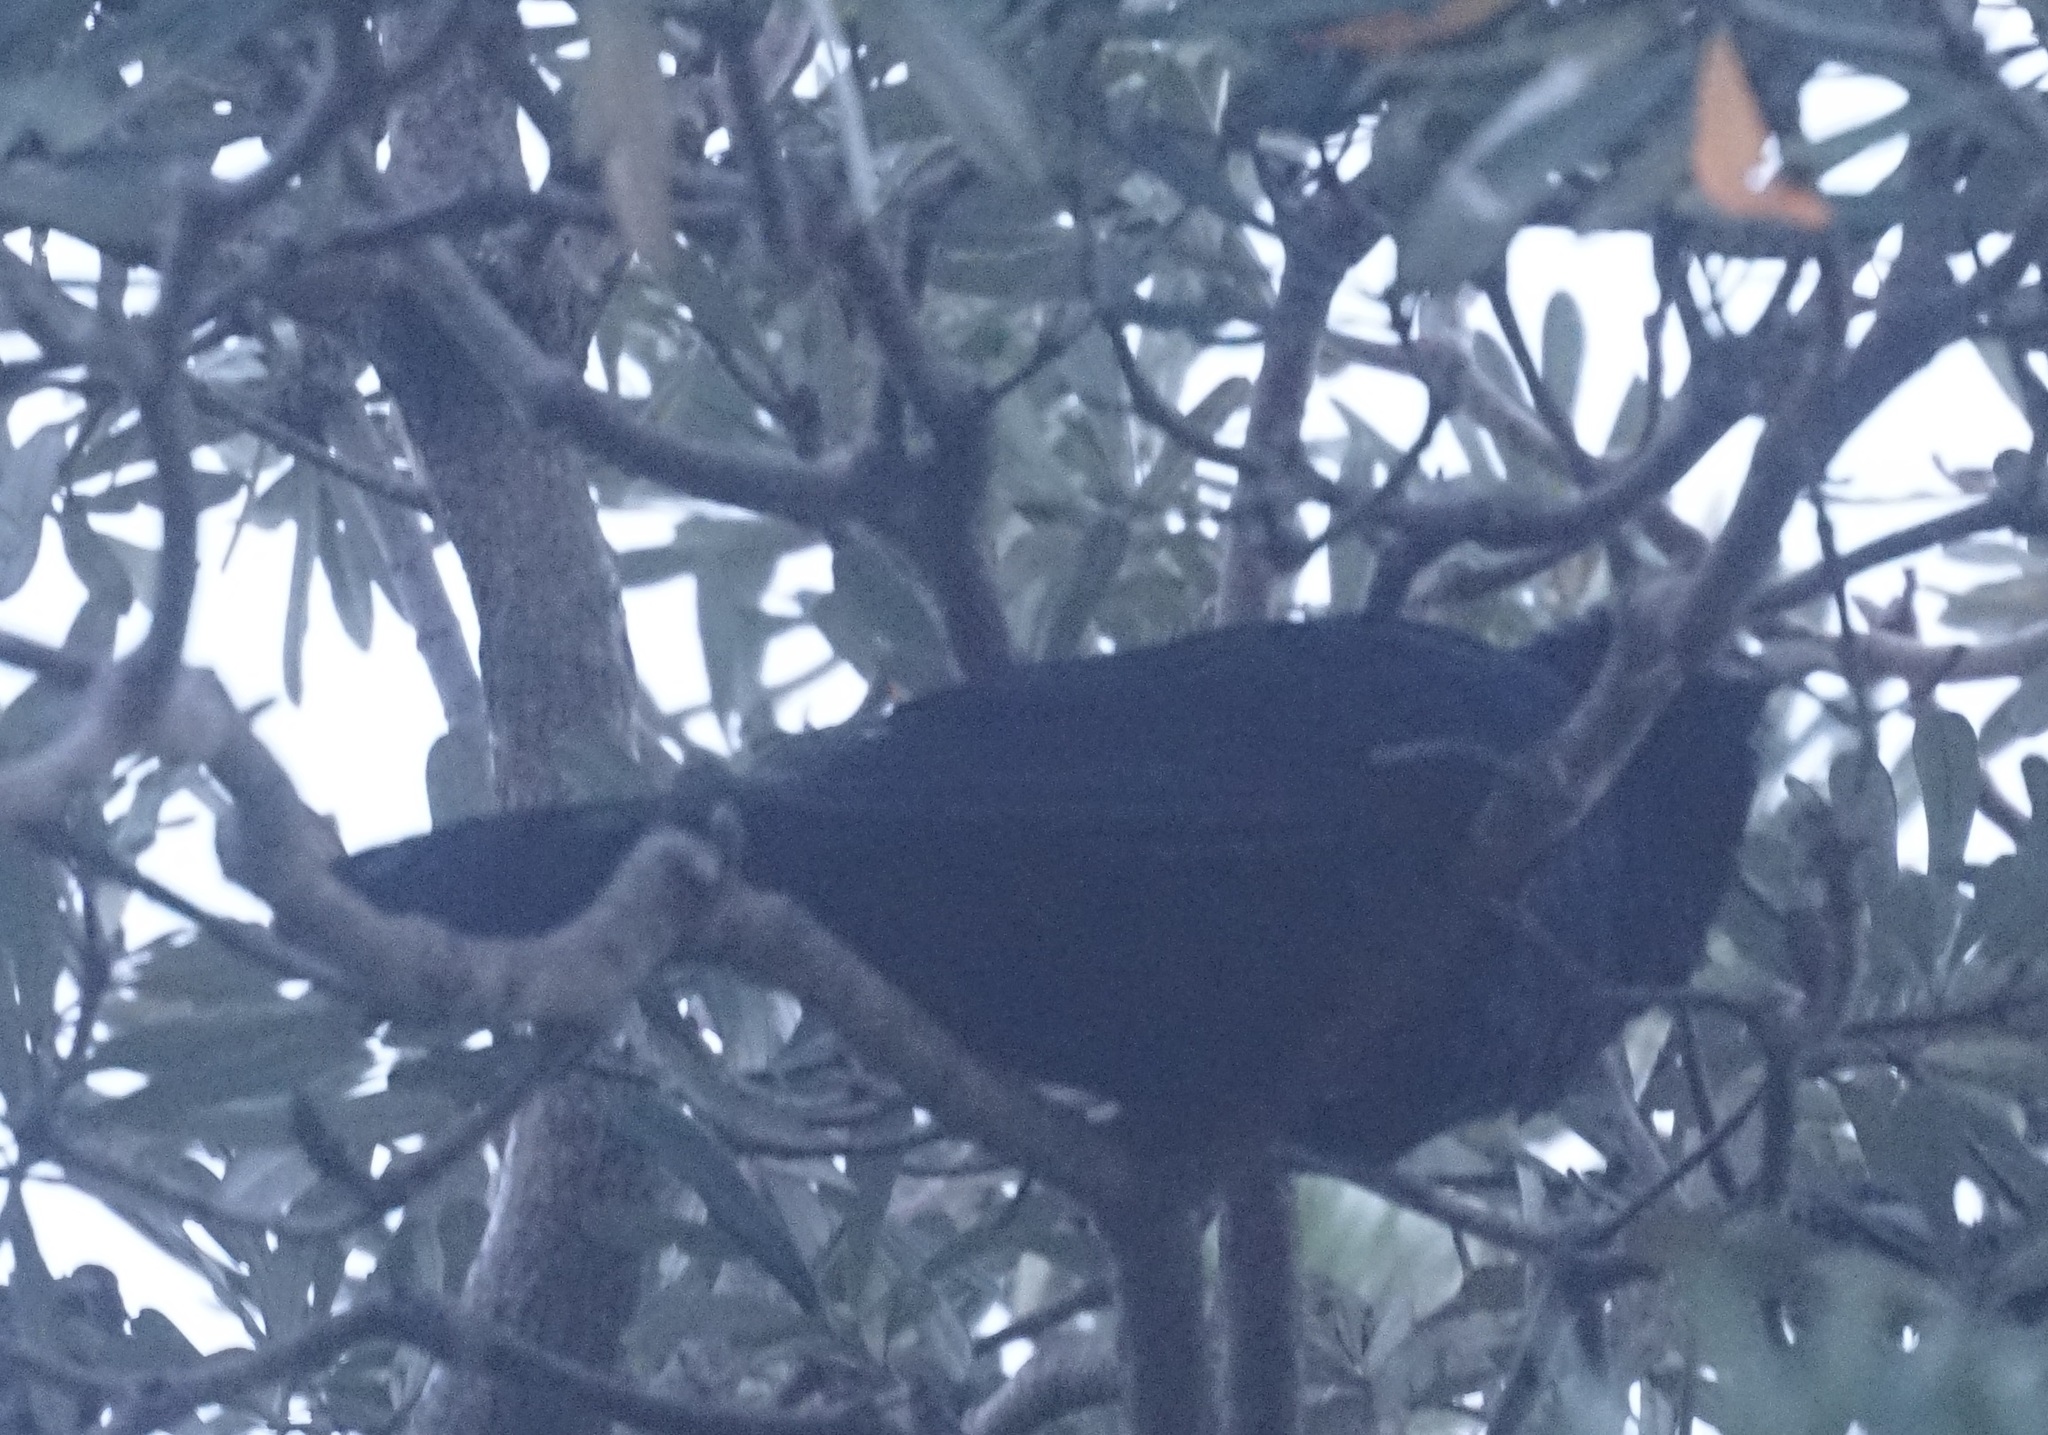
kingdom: Animalia
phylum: Chordata
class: Aves
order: Cuculiformes
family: Cuculidae
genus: Eudynamys
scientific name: Eudynamys orientalis
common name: Pacific koel
